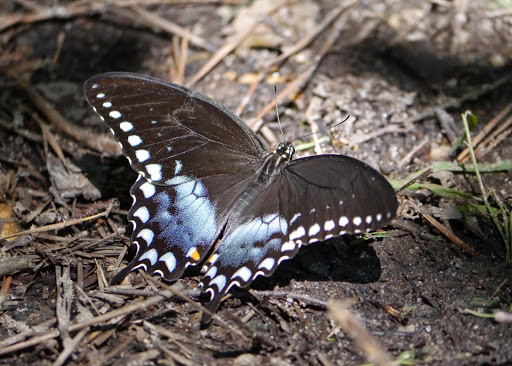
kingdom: Animalia
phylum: Arthropoda
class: Insecta
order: Lepidoptera
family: Papilionidae
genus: Papilio
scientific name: Papilio troilus
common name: Spicebush swallowtail
